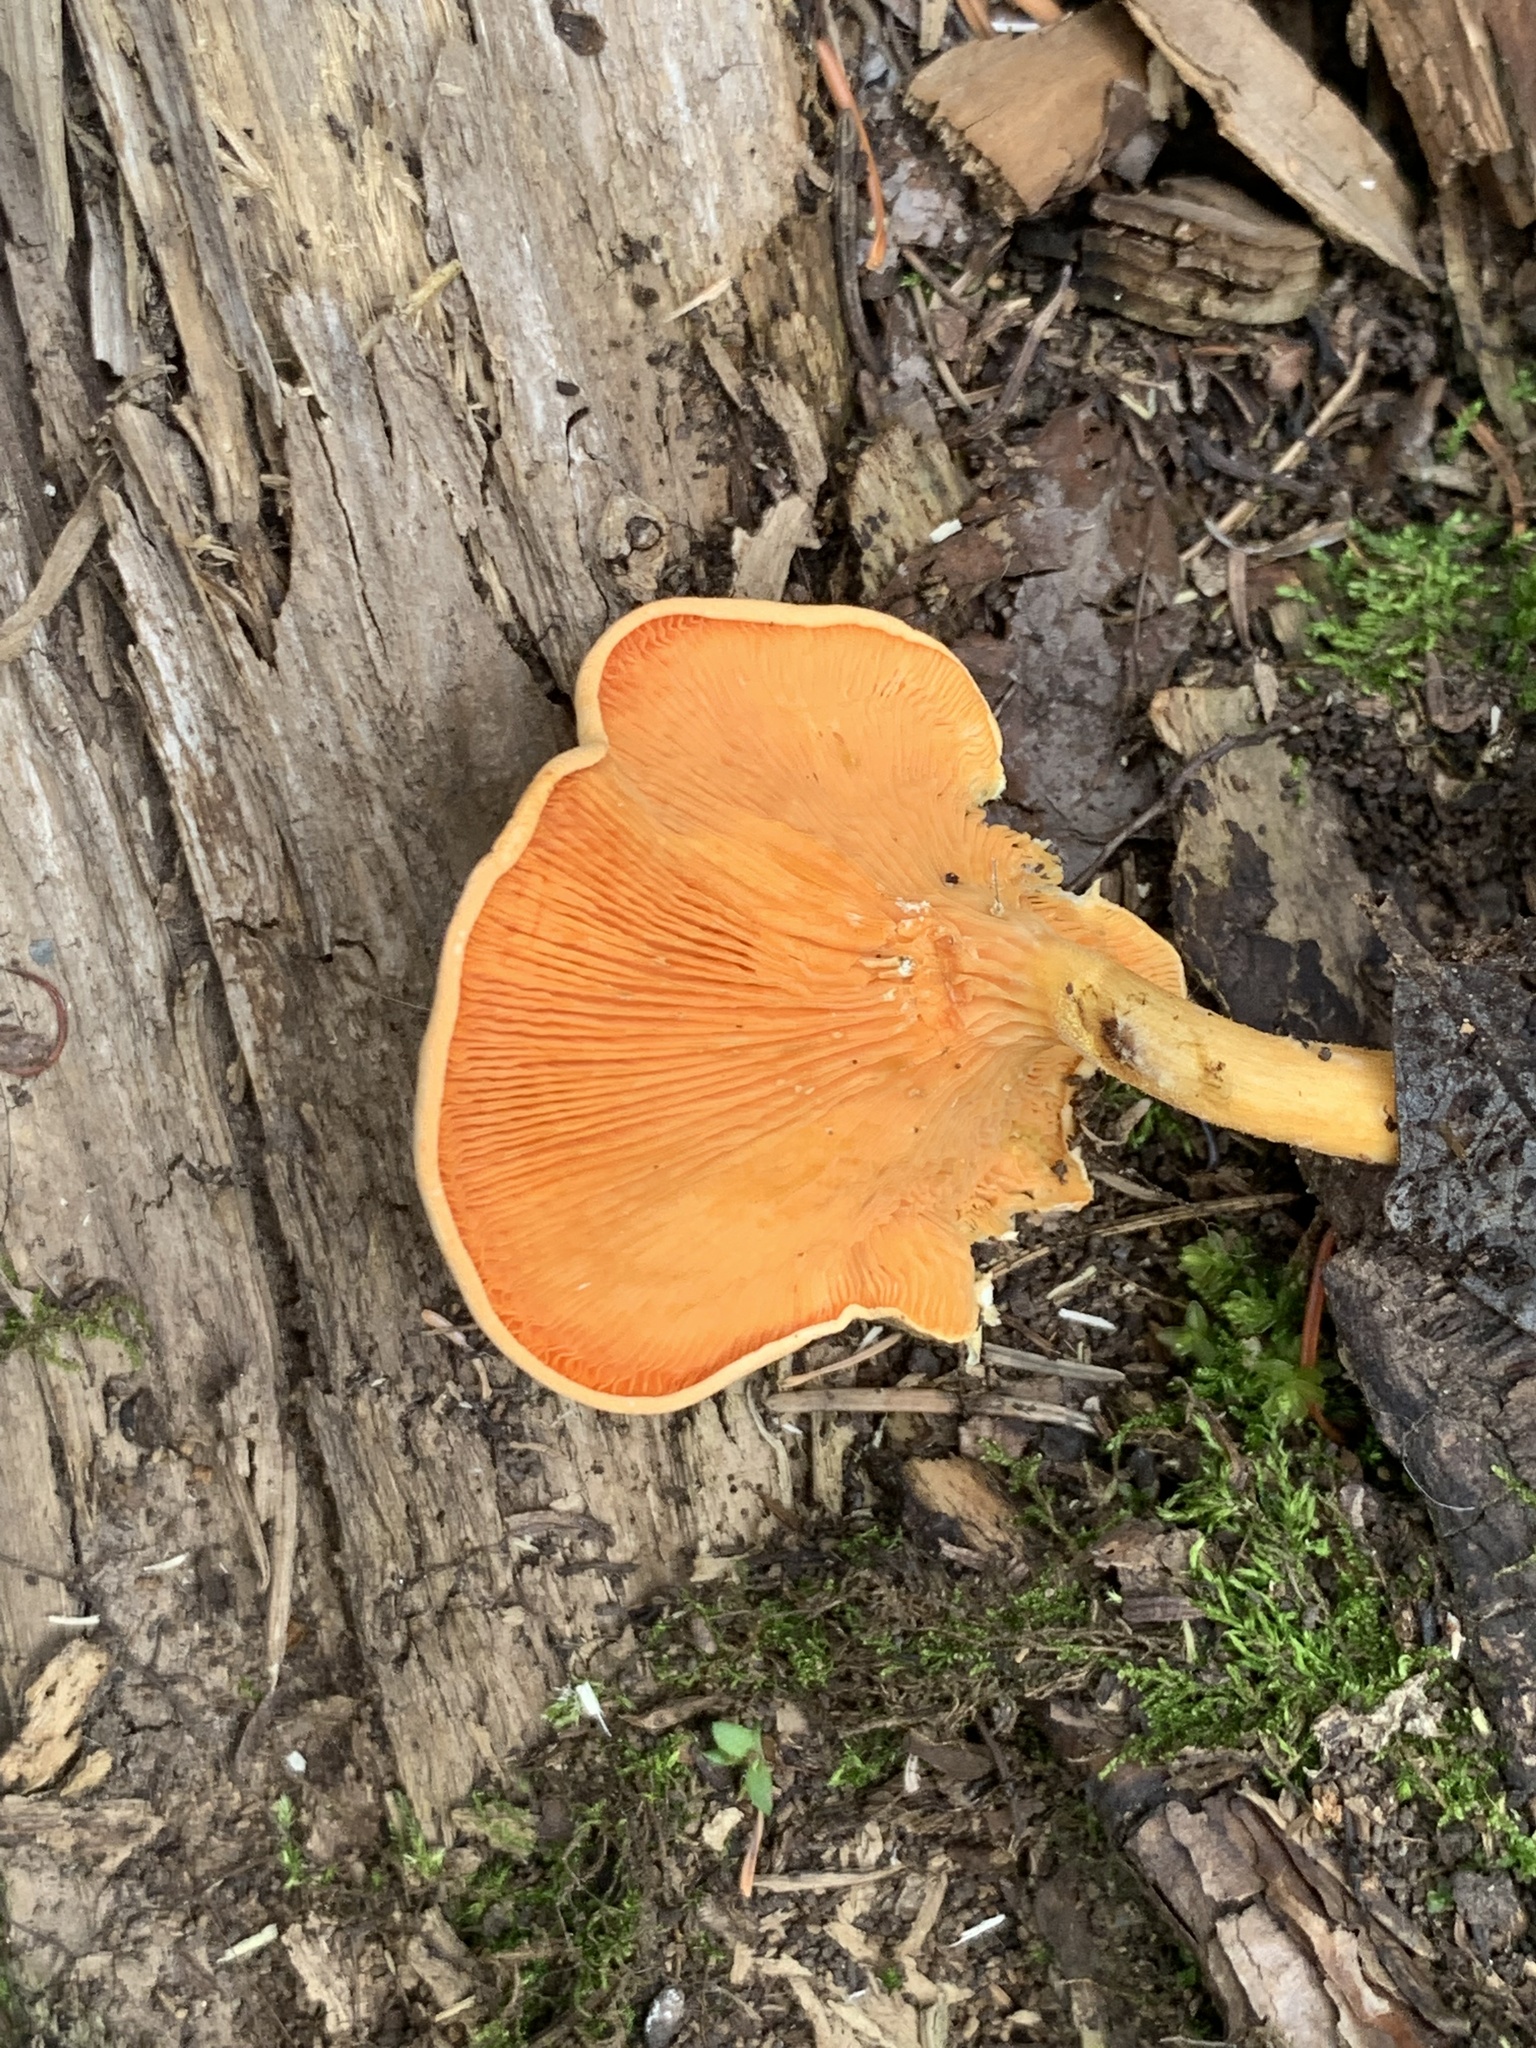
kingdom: Fungi
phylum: Basidiomycota
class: Agaricomycetes
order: Boletales
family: Hygrophoropsidaceae
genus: Hygrophoropsis
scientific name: Hygrophoropsis aurantiaca
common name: False chanterelle
